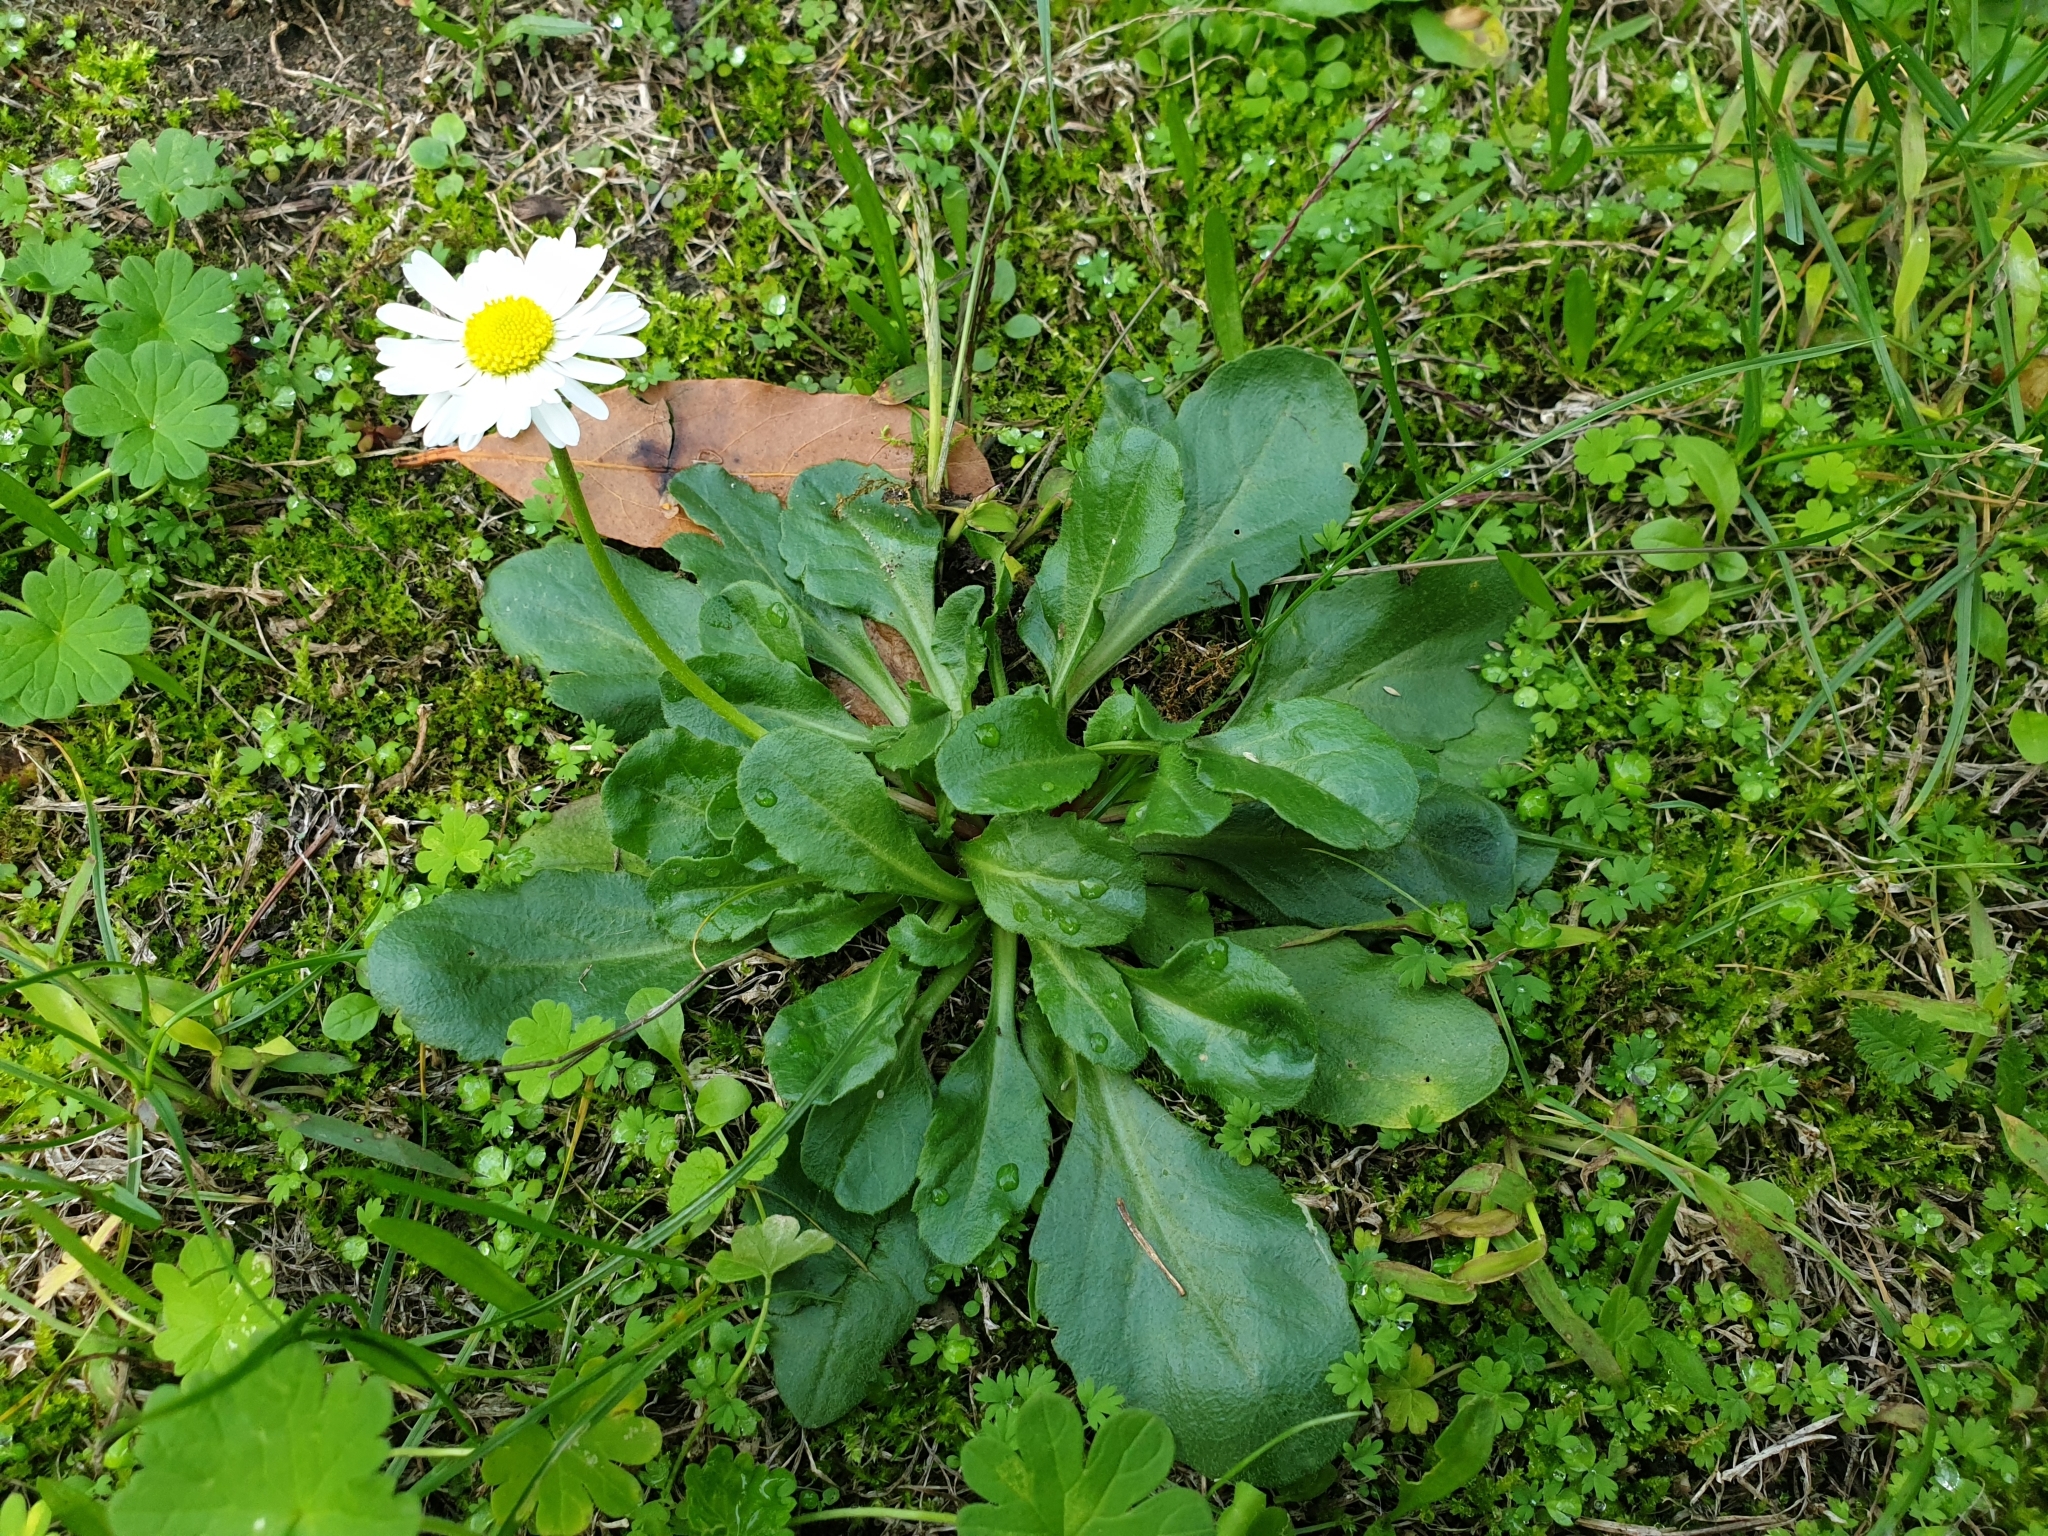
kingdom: Plantae
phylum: Tracheophyta
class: Magnoliopsida
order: Asterales
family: Asteraceae
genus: Bellis
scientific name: Bellis perennis
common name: Lawndaisy
